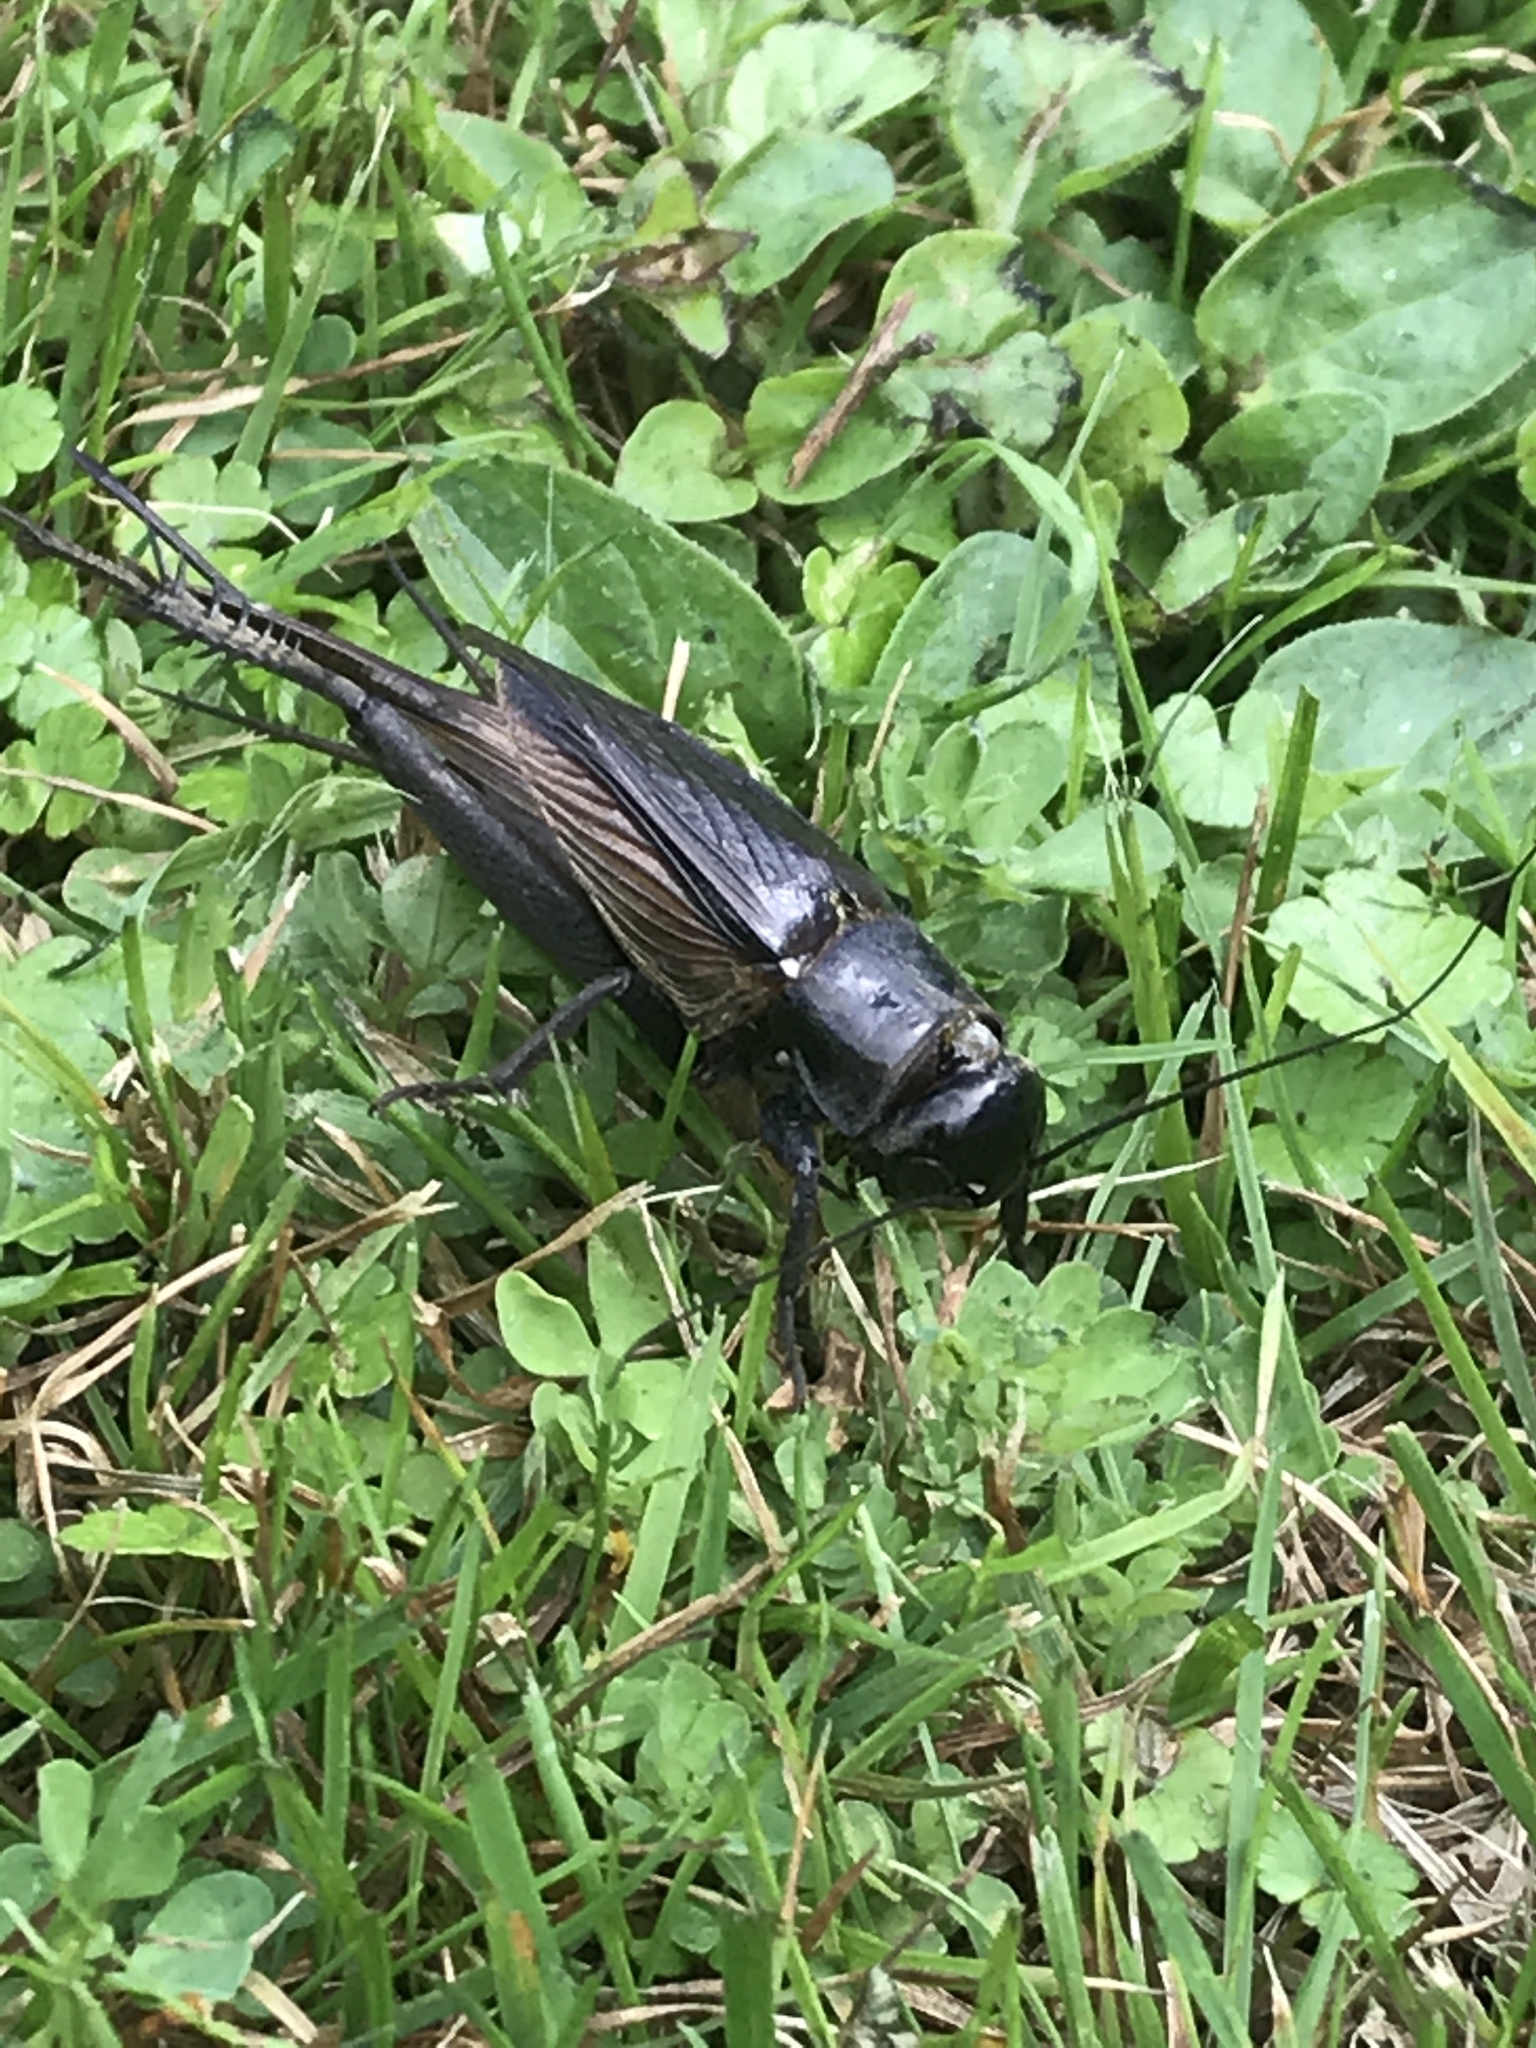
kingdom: Animalia
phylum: Arthropoda
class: Insecta
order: Orthoptera
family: Gryllidae
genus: Teleogryllus
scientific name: Teleogryllus commodus
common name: Black field cricket
